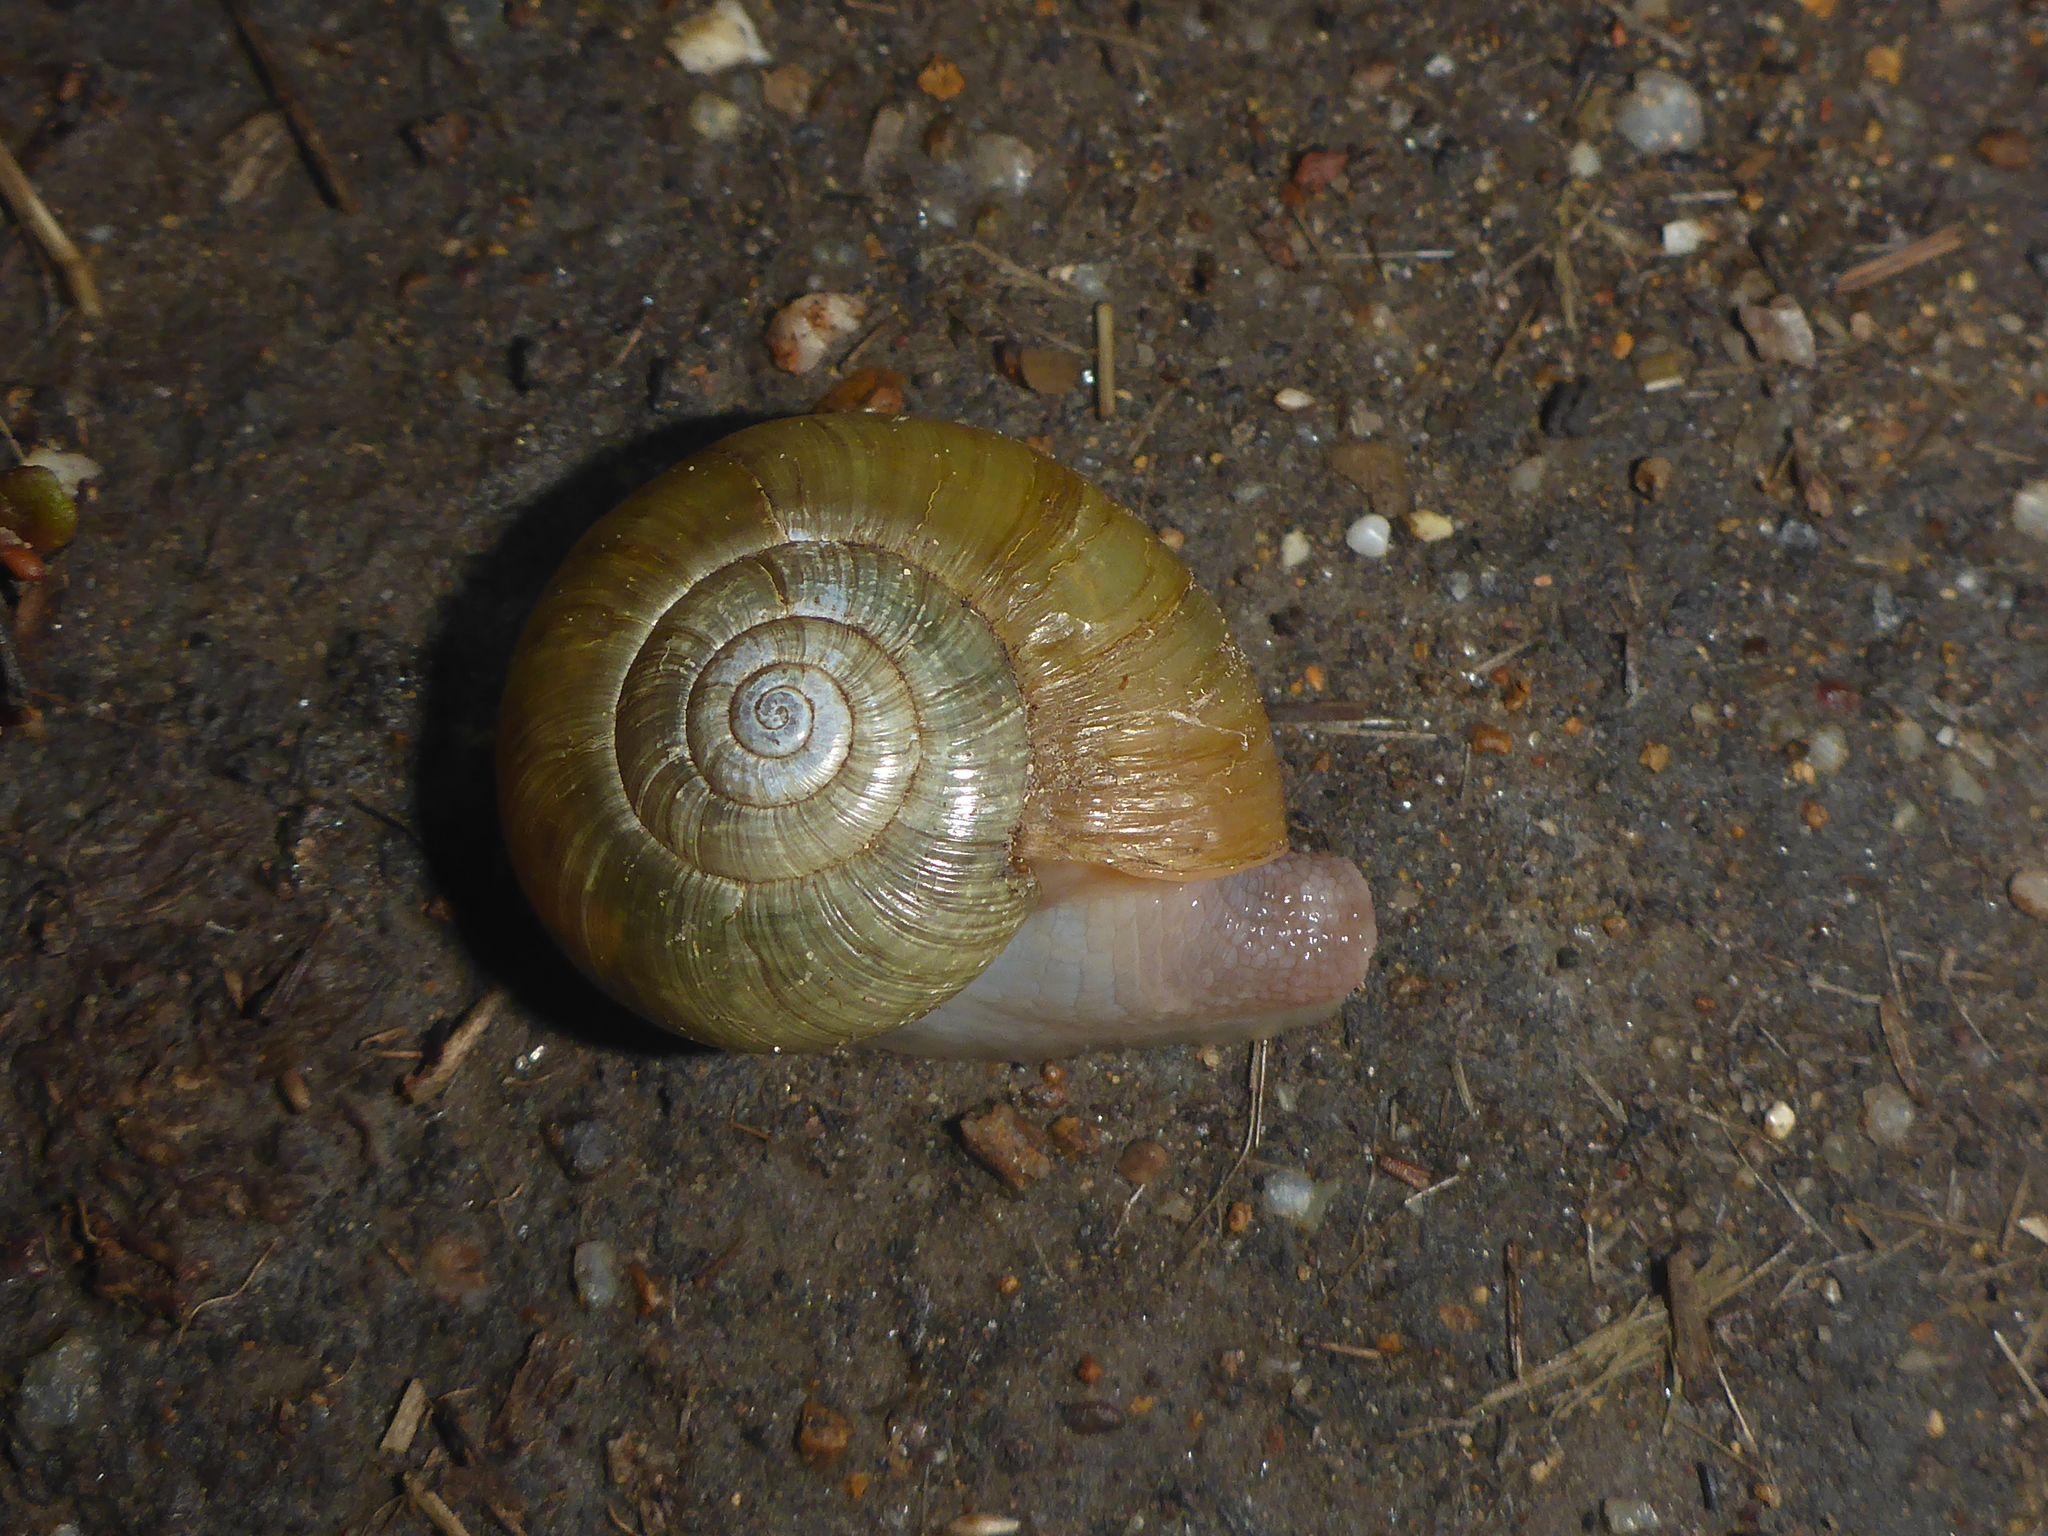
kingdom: Animalia
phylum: Mollusca
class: Gastropoda
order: Stylommatophora
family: Haplotrematidae
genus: Haplotrema
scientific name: Haplotrema minimum
